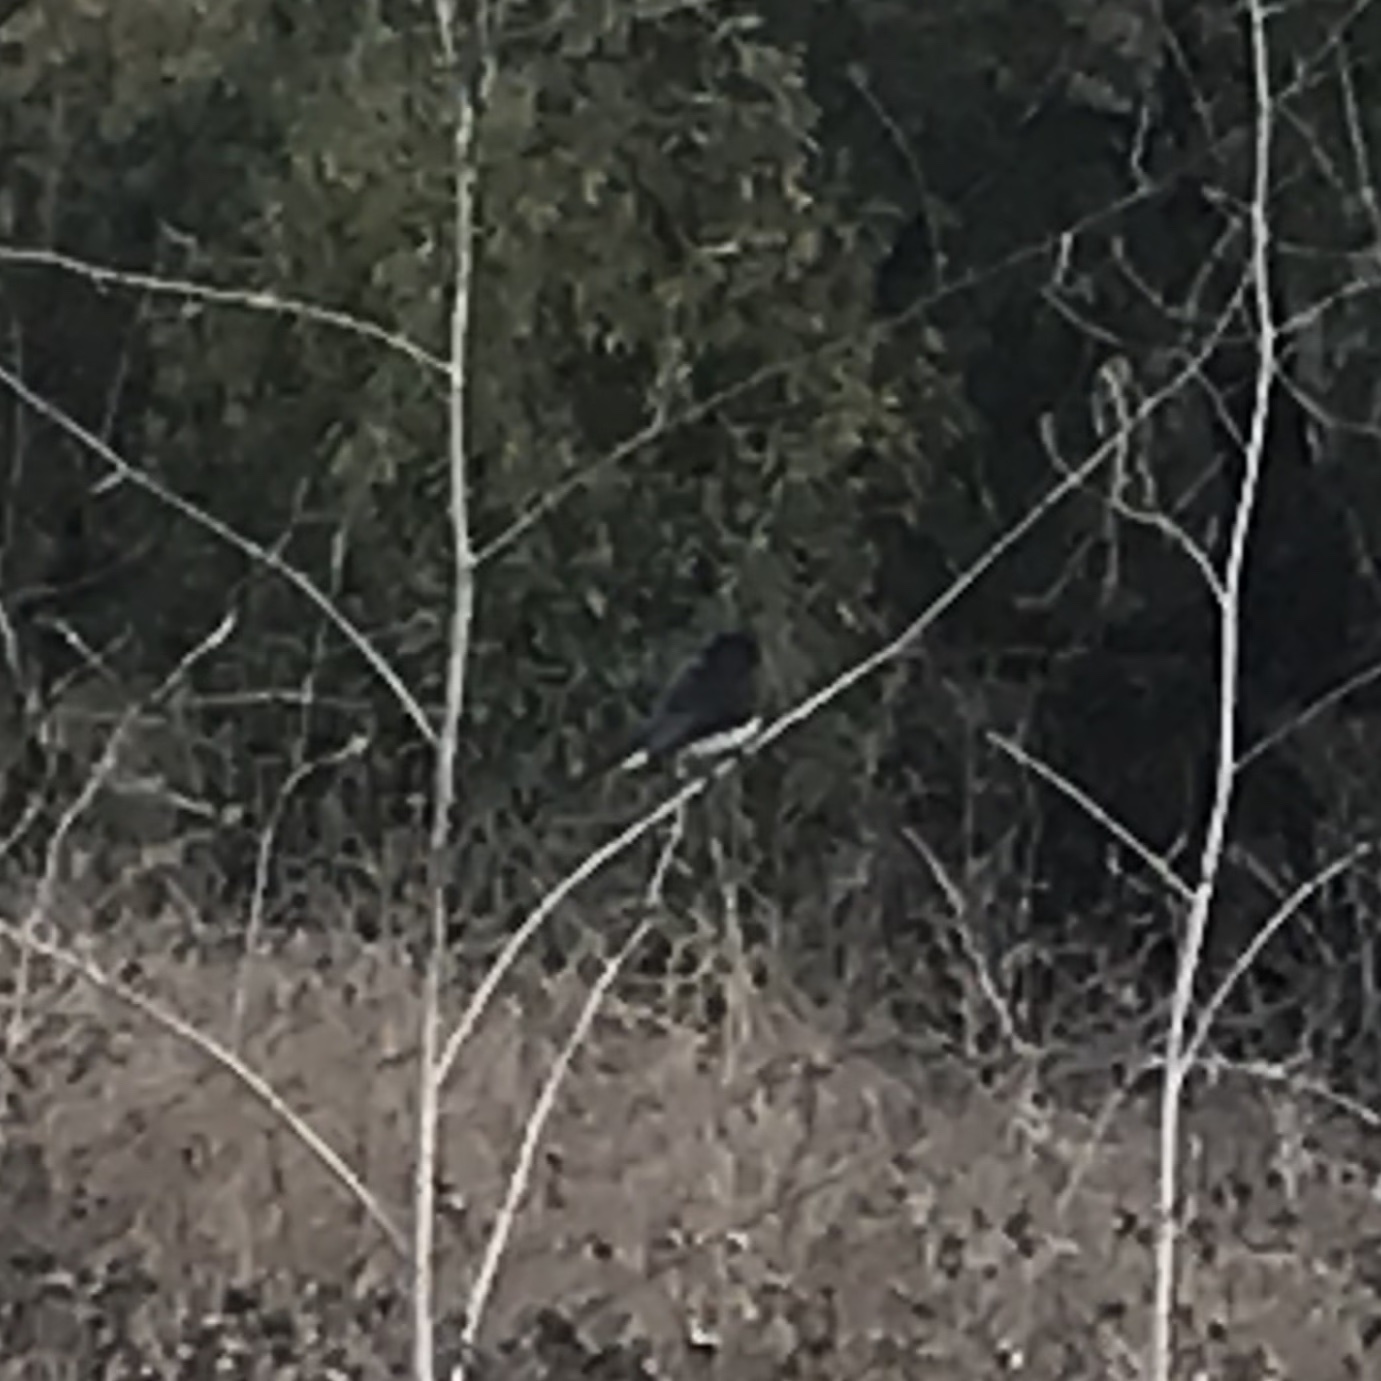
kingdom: Animalia
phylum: Chordata
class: Aves
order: Passeriformes
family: Tyrannidae
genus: Sayornis
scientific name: Sayornis nigricans
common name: Black phoebe
